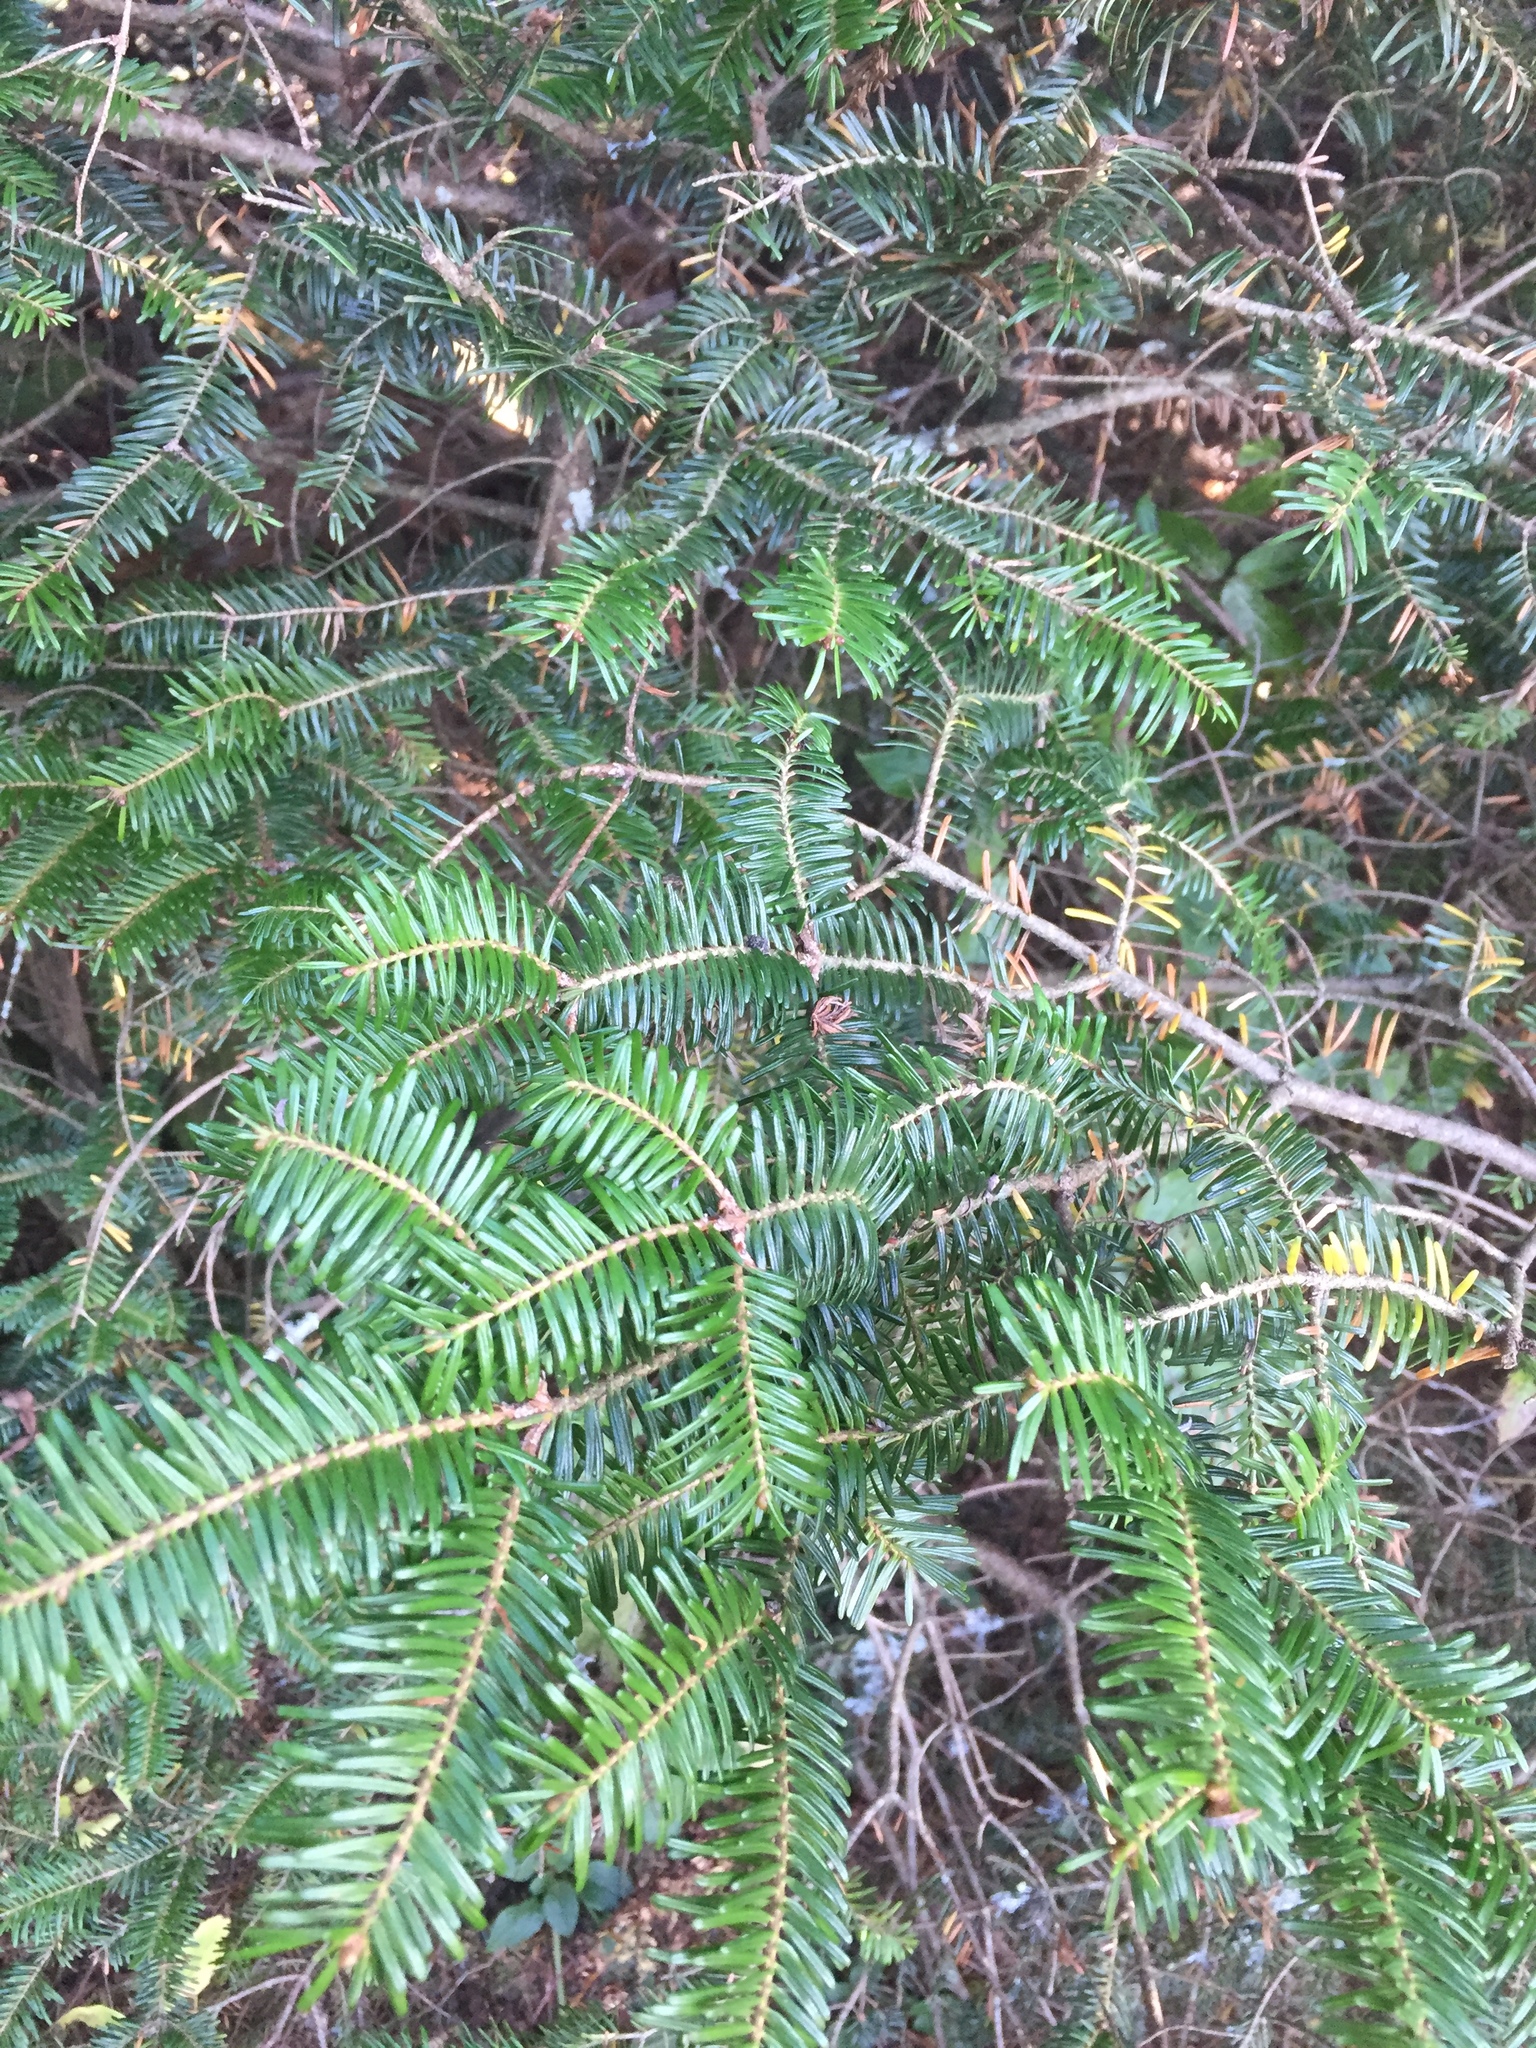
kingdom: Plantae
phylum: Tracheophyta
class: Pinopsida
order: Pinales
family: Pinaceae
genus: Abies
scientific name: Abies fraseri
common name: Fraser fir
